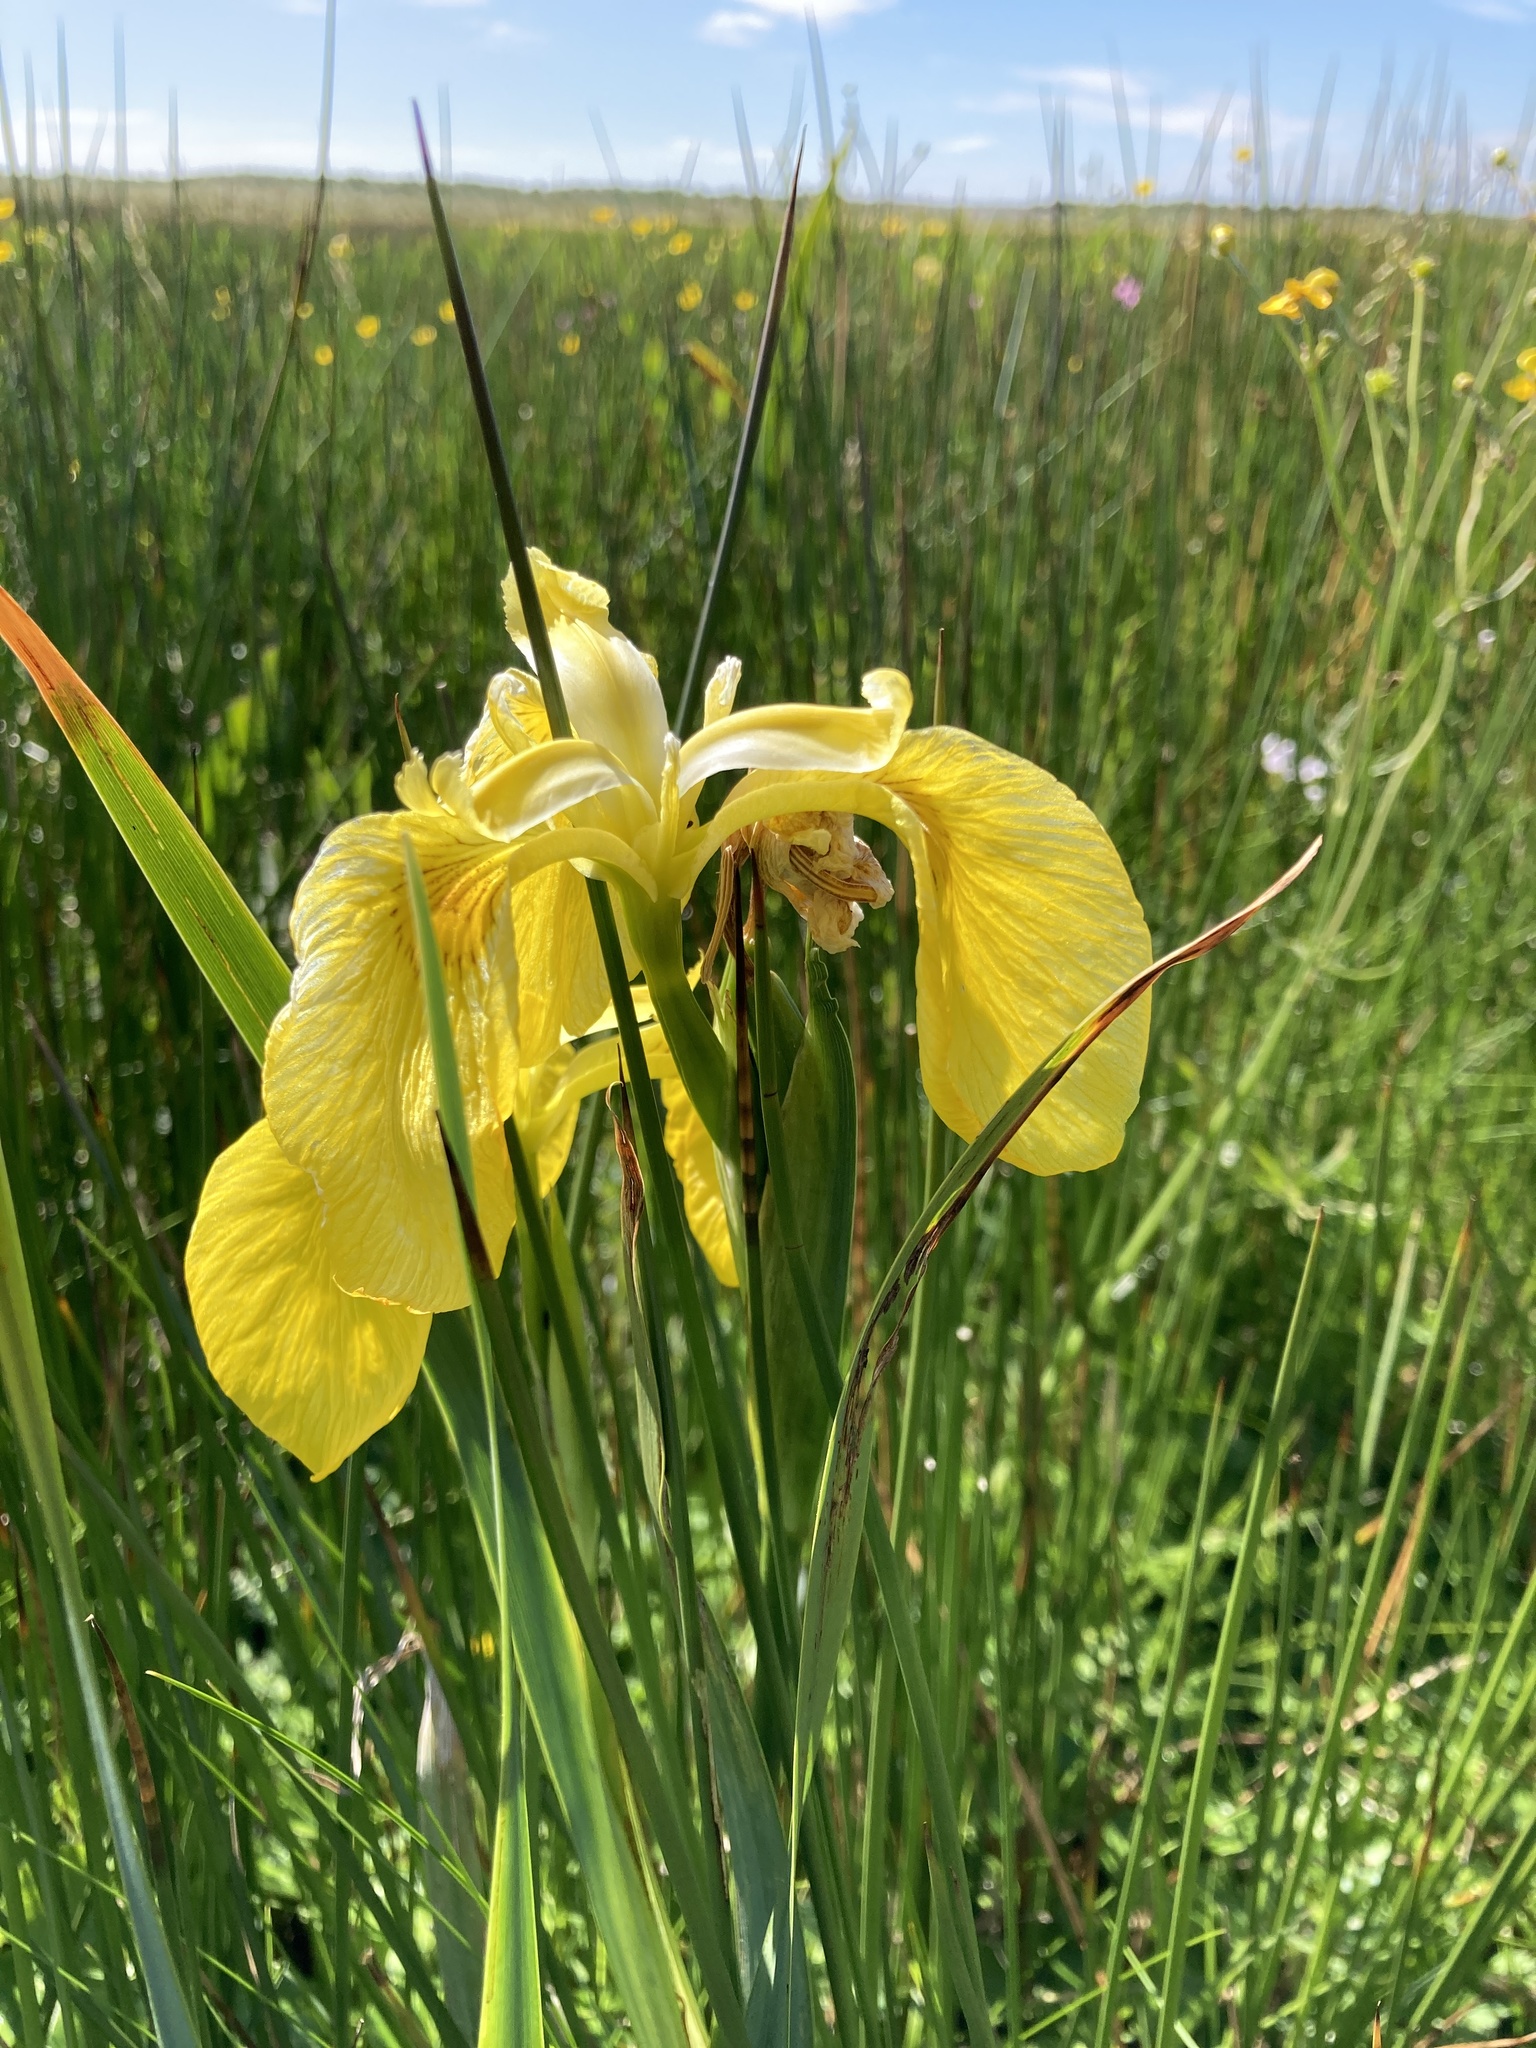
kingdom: Plantae
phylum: Tracheophyta
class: Liliopsida
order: Asparagales
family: Iridaceae
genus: Iris
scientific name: Iris pseudacorus
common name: Yellow flag
